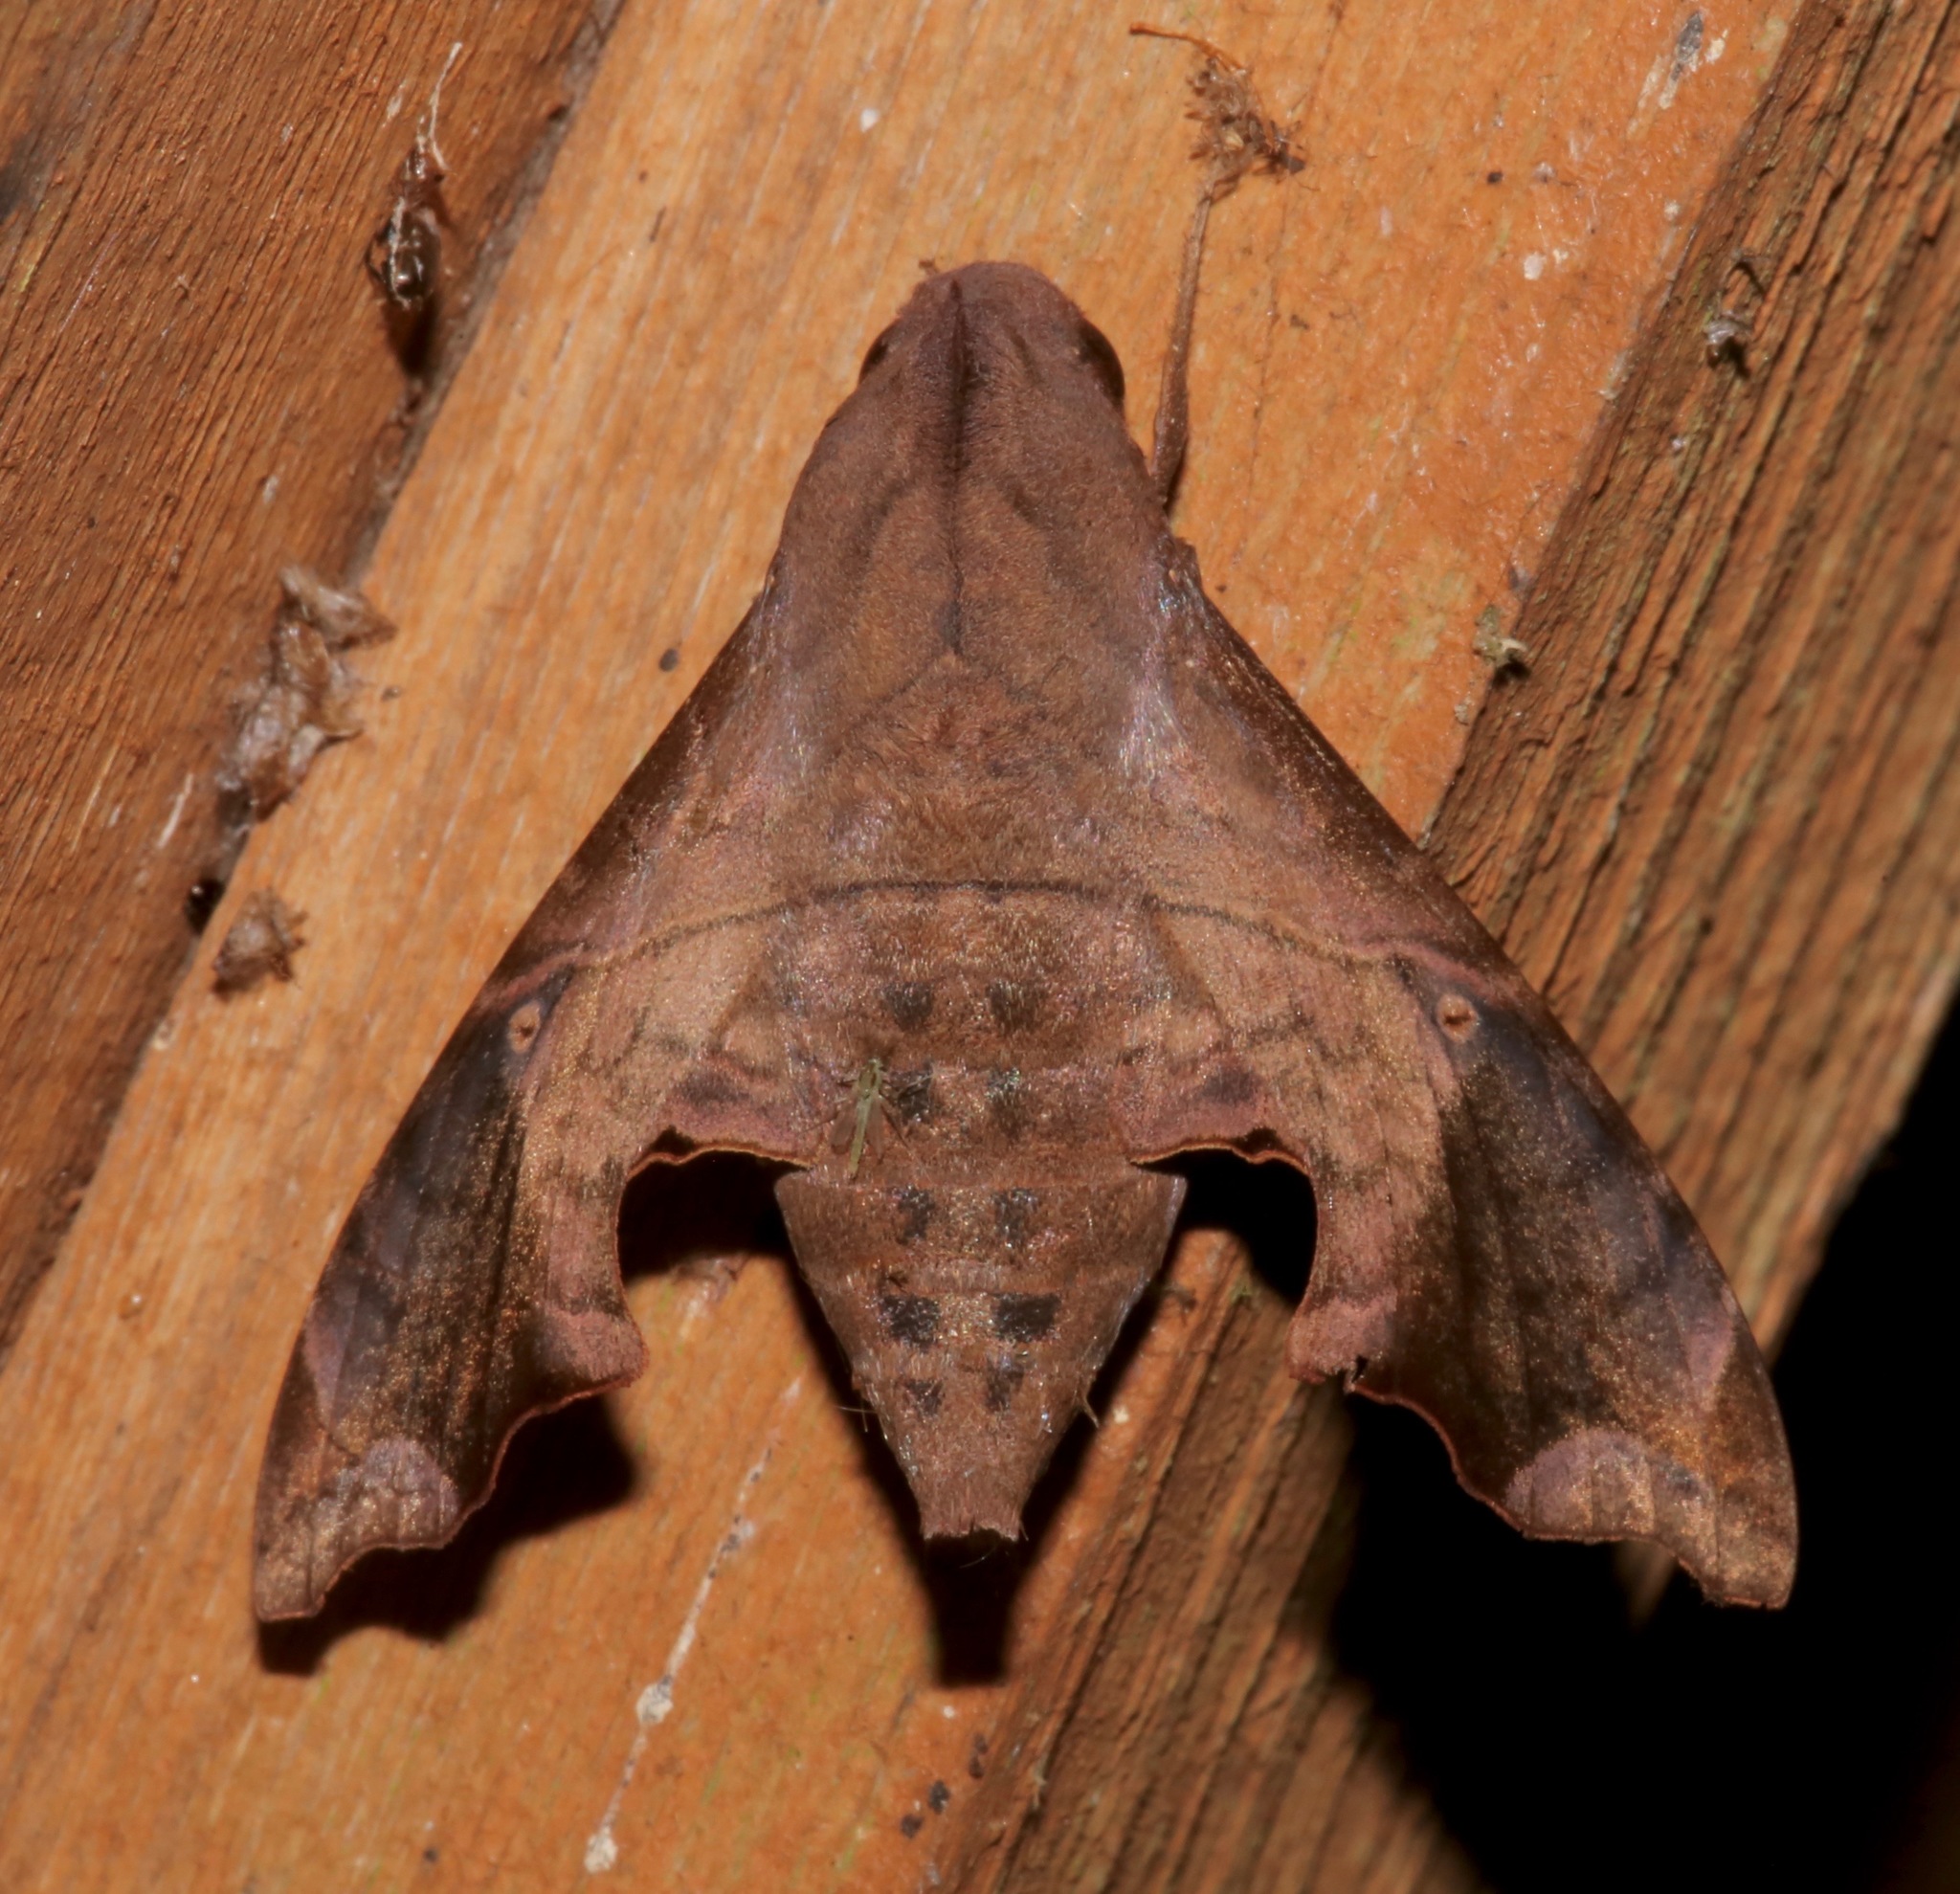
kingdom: Animalia
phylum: Arthropoda
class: Insecta
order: Lepidoptera
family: Sphingidae
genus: Enyo
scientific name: Enyo lugubris
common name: Mournful sphinx
